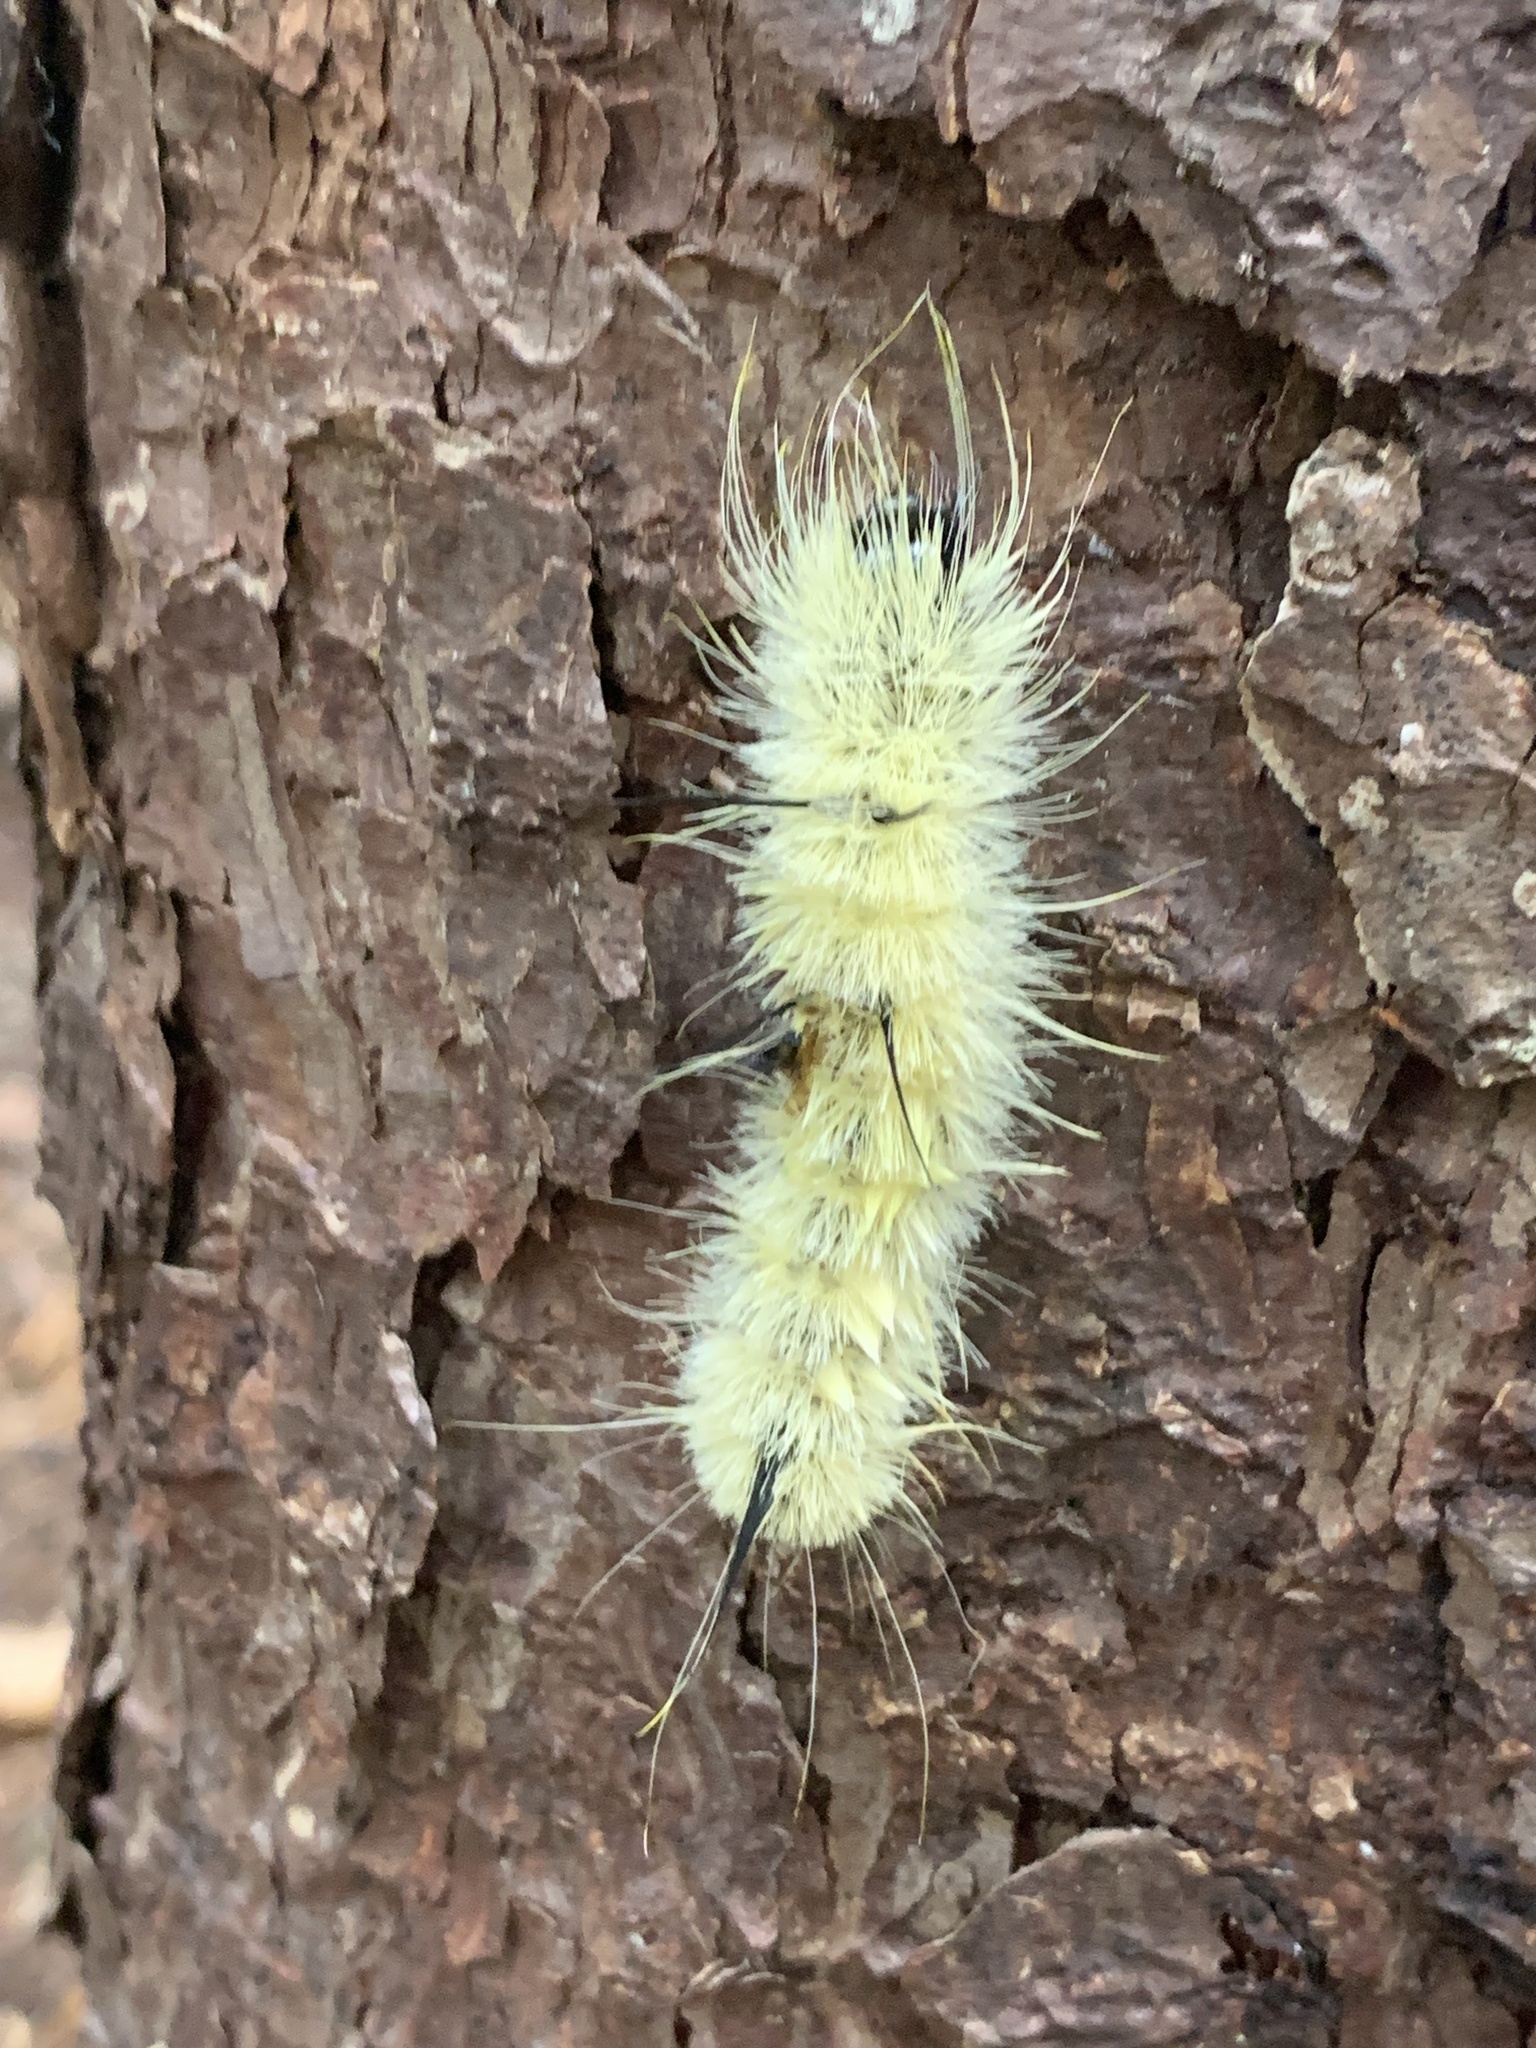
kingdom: Animalia
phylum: Arthropoda
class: Insecta
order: Lepidoptera
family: Noctuidae
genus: Acronicta
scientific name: Acronicta americana
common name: American dagger
